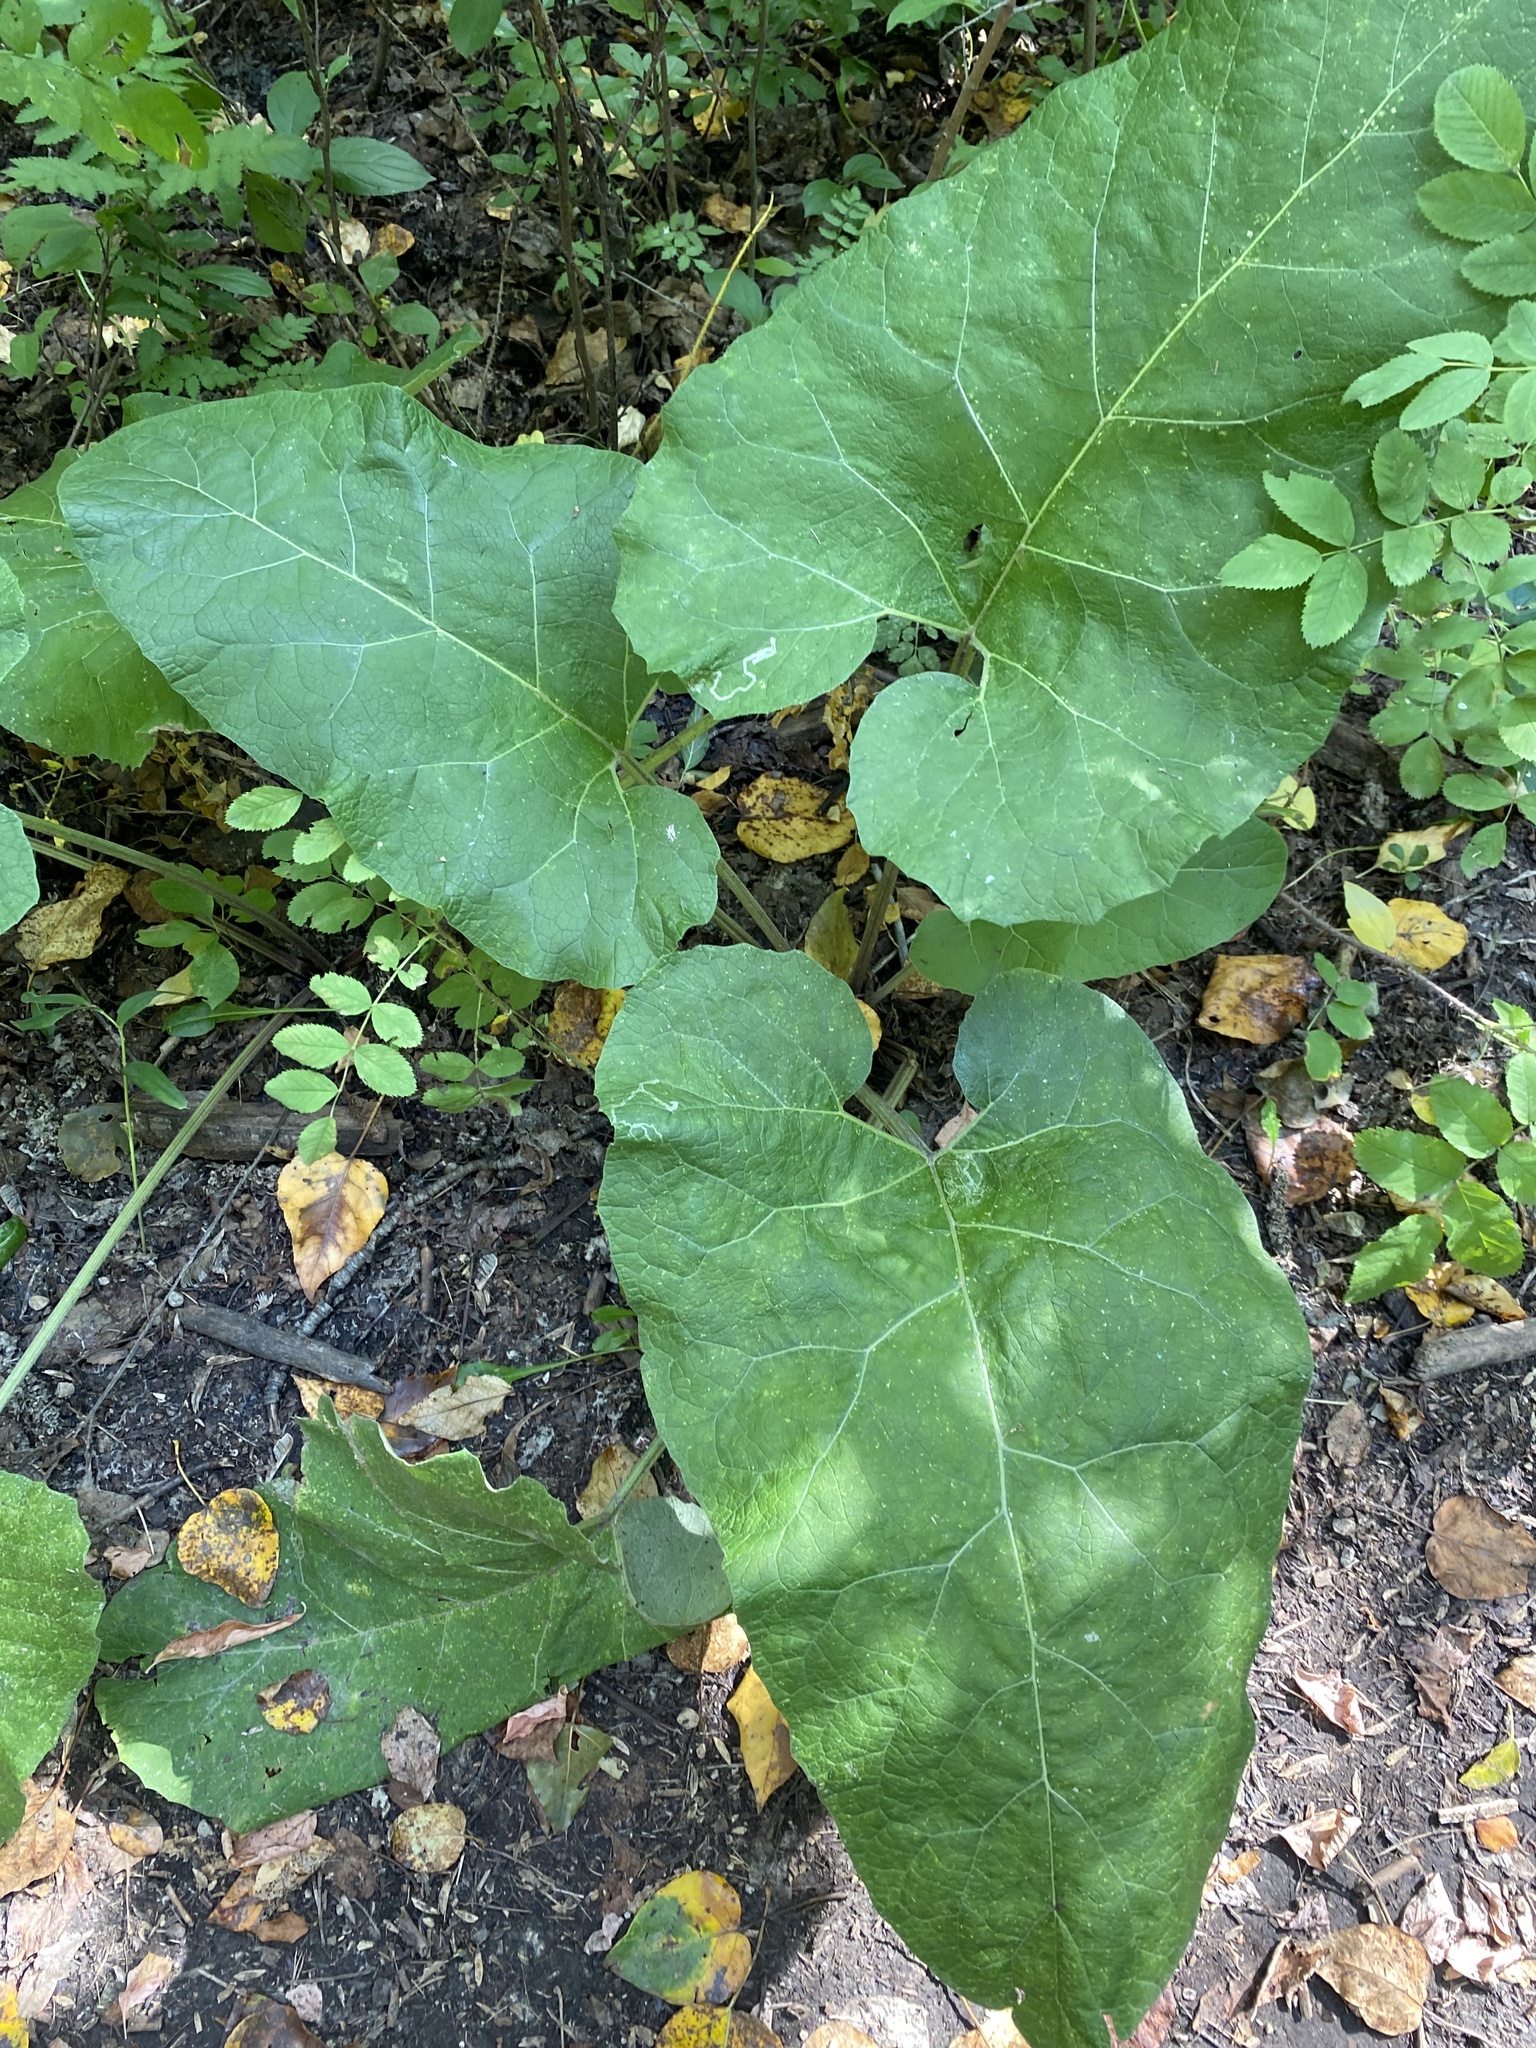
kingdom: Plantae
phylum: Tracheophyta
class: Magnoliopsida
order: Asterales
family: Asteraceae
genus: Arctium
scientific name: Arctium
